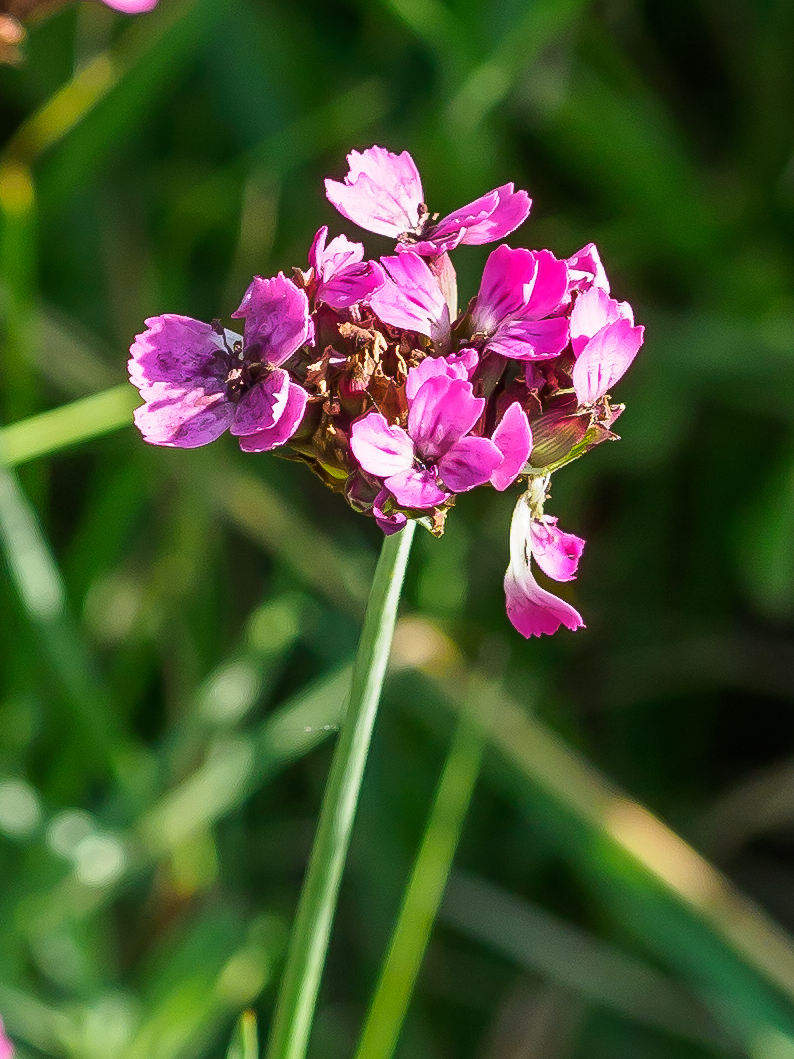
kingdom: Plantae
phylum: Tracheophyta
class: Magnoliopsida
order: Caryophyllales
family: Caryophyllaceae
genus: Dianthus
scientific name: Dianthus pontederae
